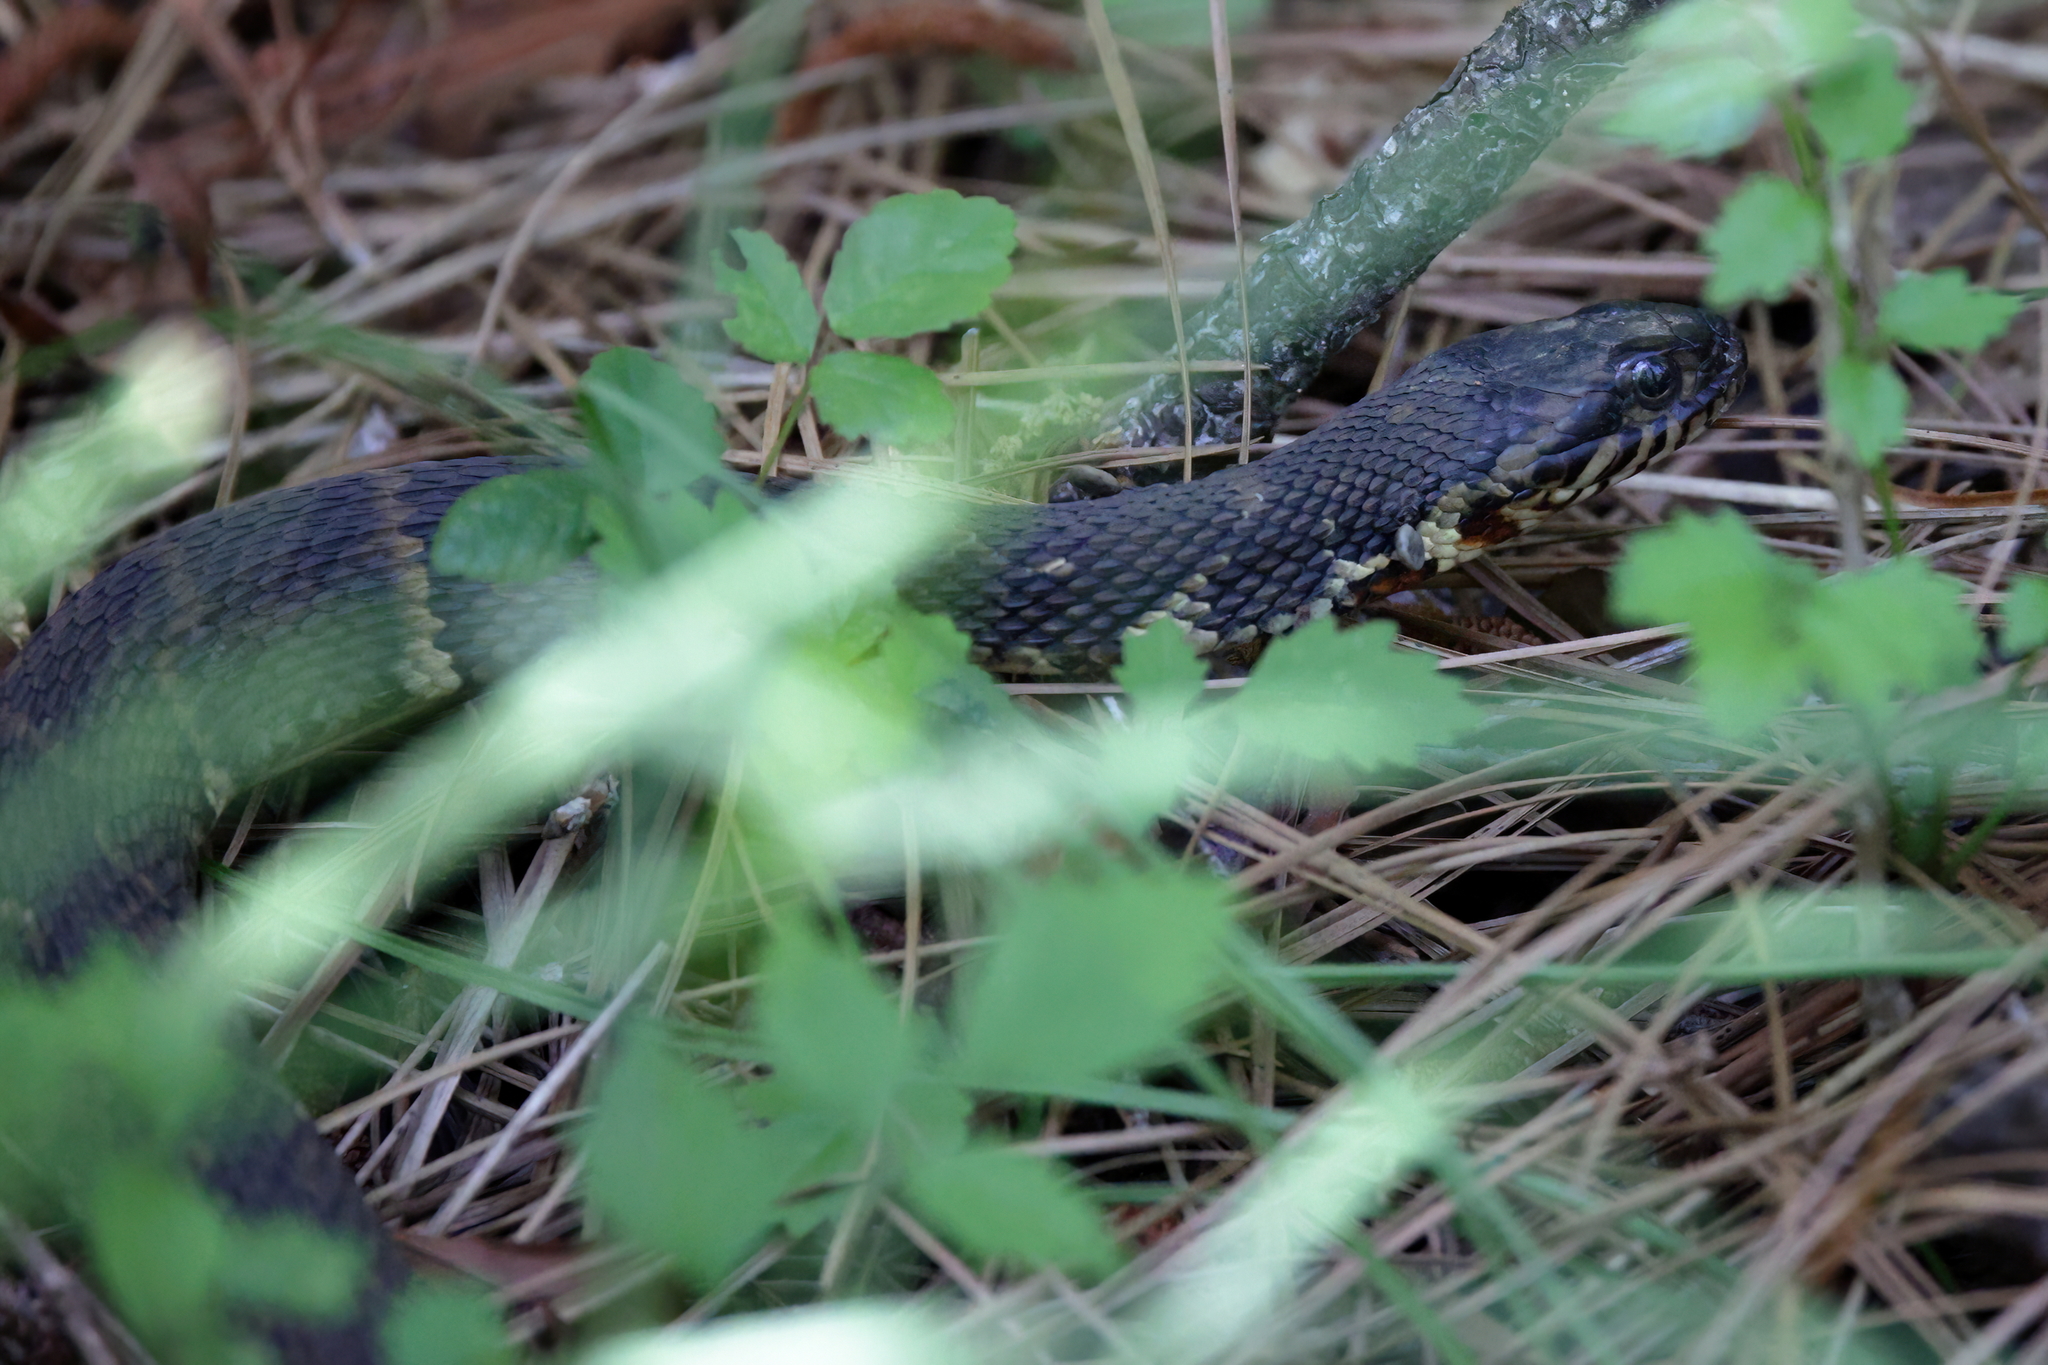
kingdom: Animalia
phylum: Chordata
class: Squamata
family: Colubridae
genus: Nerodia
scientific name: Nerodia fasciata
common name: Southern water snake
